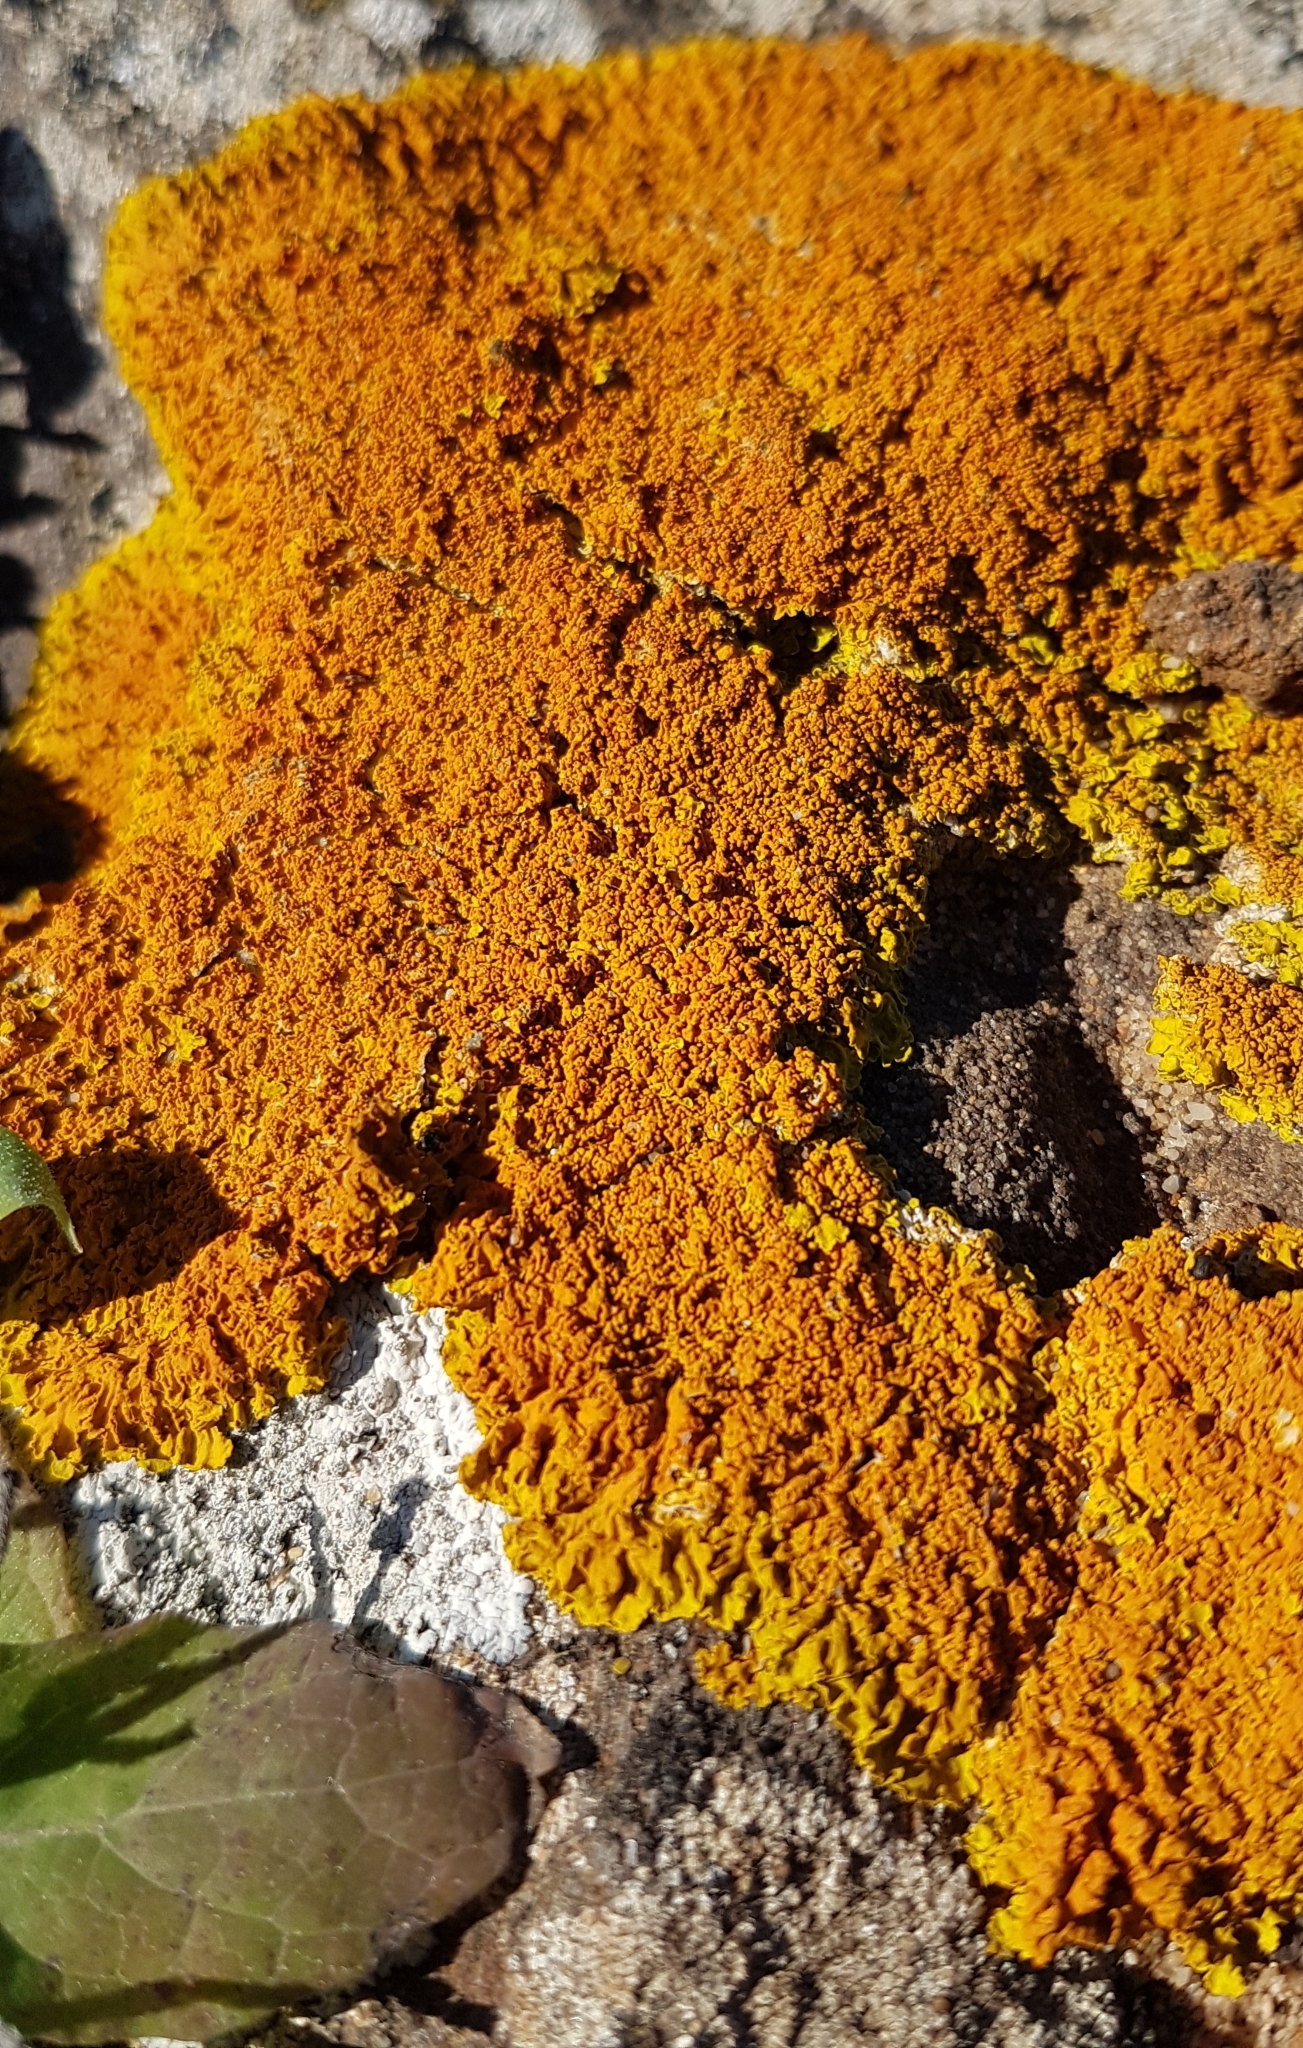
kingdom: Fungi
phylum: Ascomycota
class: Lecanoromycetes
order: Teloschistales
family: Teloschistaceae
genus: Xanthoria
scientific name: Xanthoria calcicola
